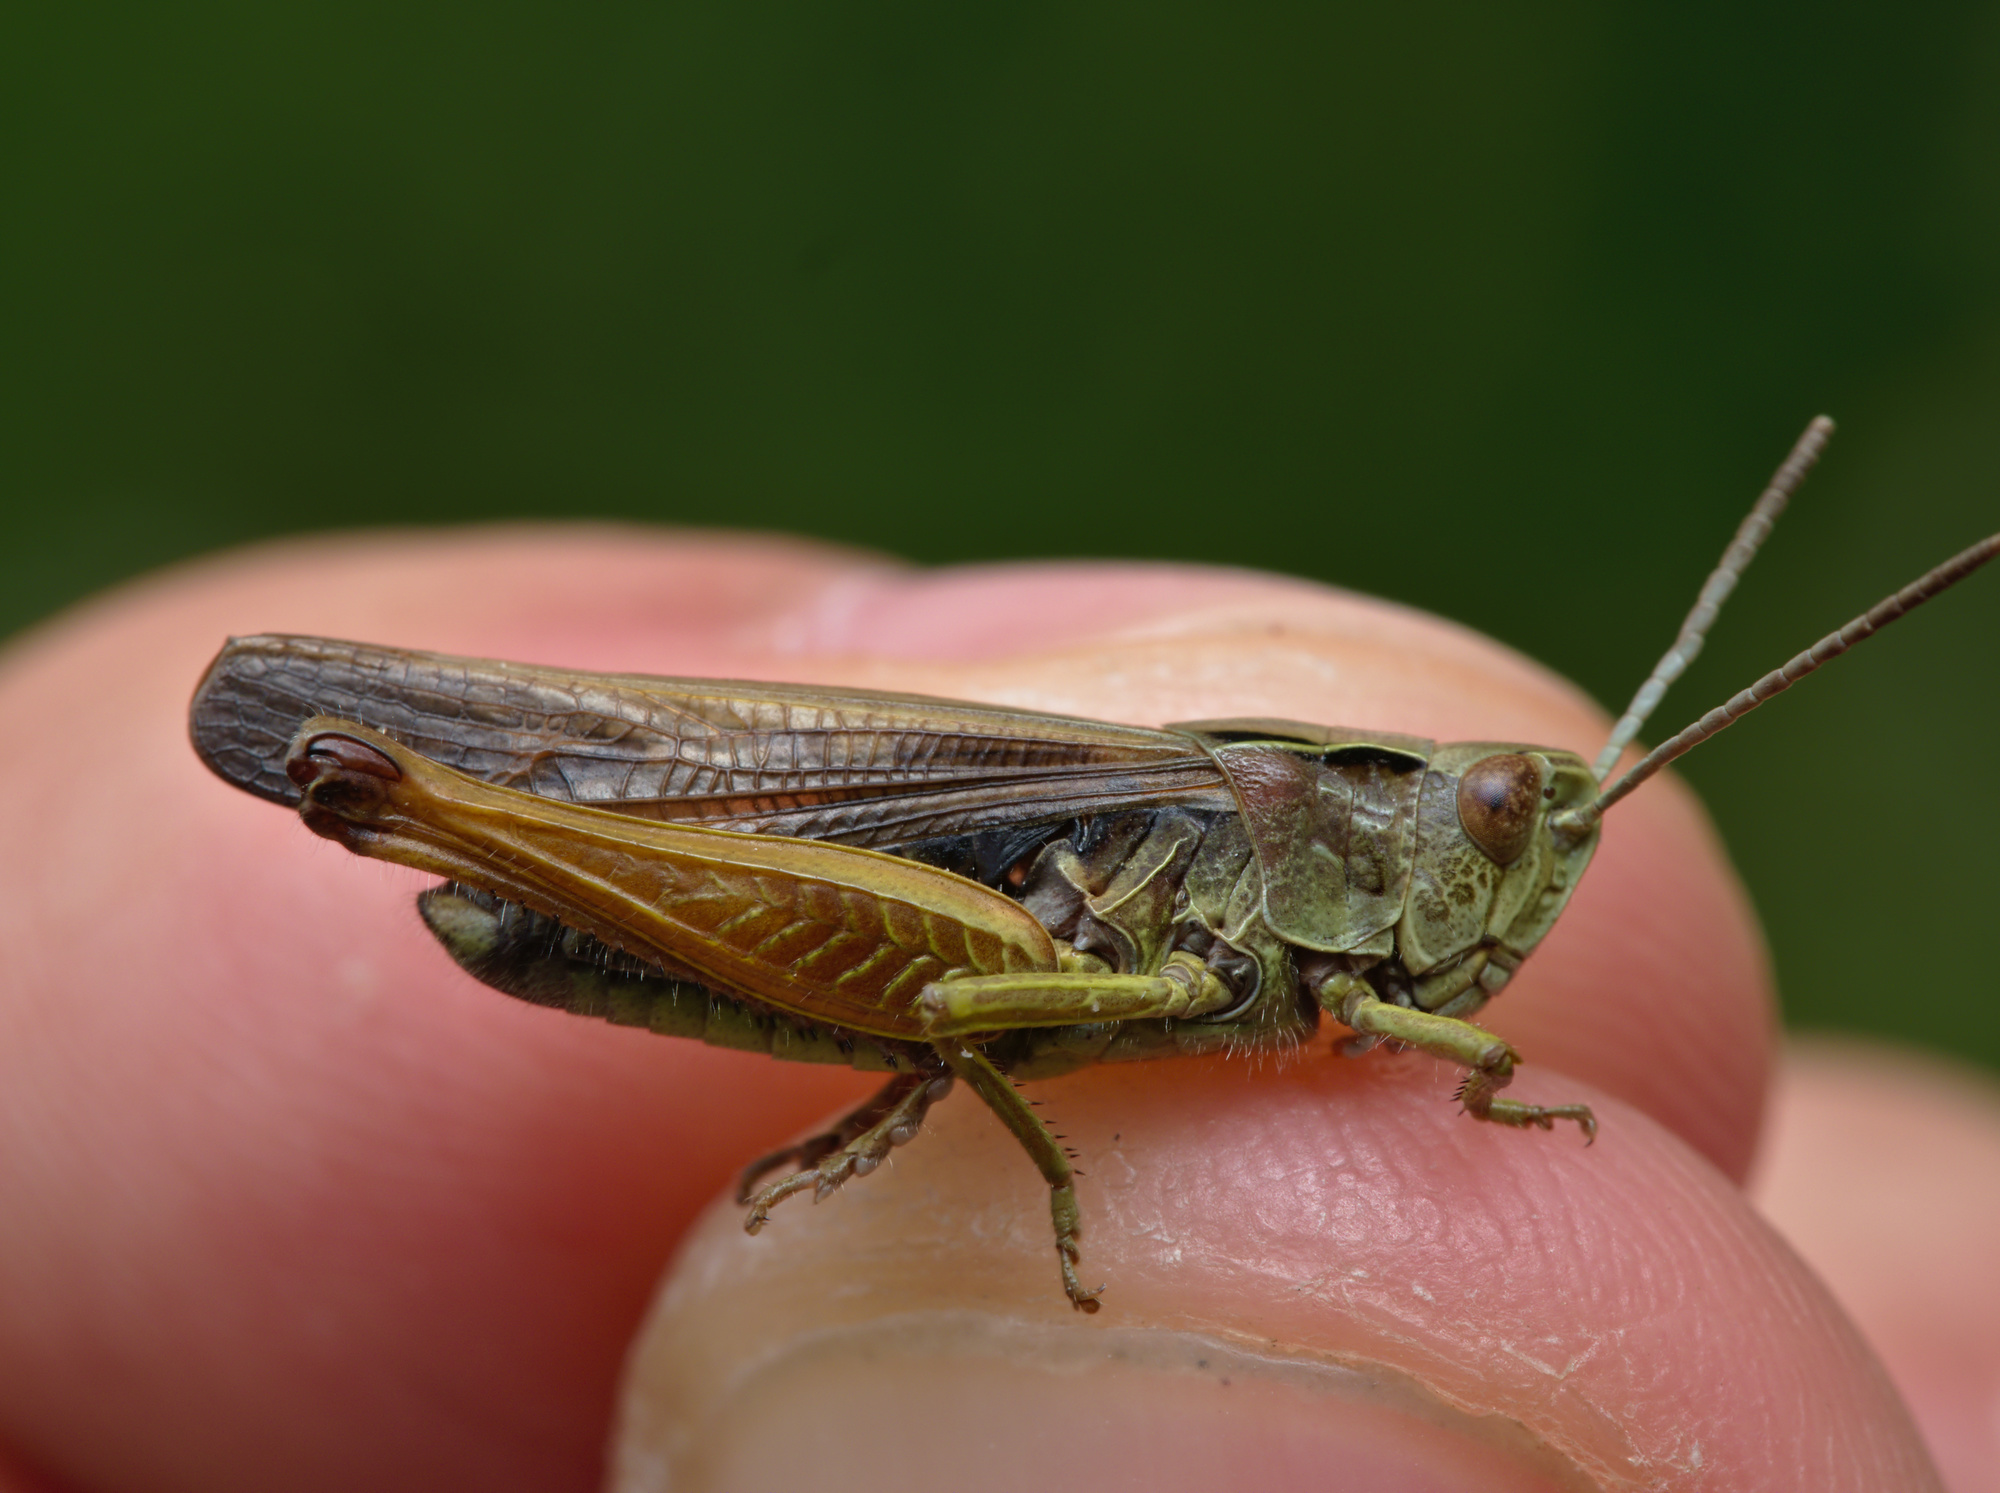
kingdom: Animalia
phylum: Arthropoda
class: Insecta
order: Orthoptera
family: Acrididae
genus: Omocestus
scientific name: Omocestus viridulus
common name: Common green grasshopper
